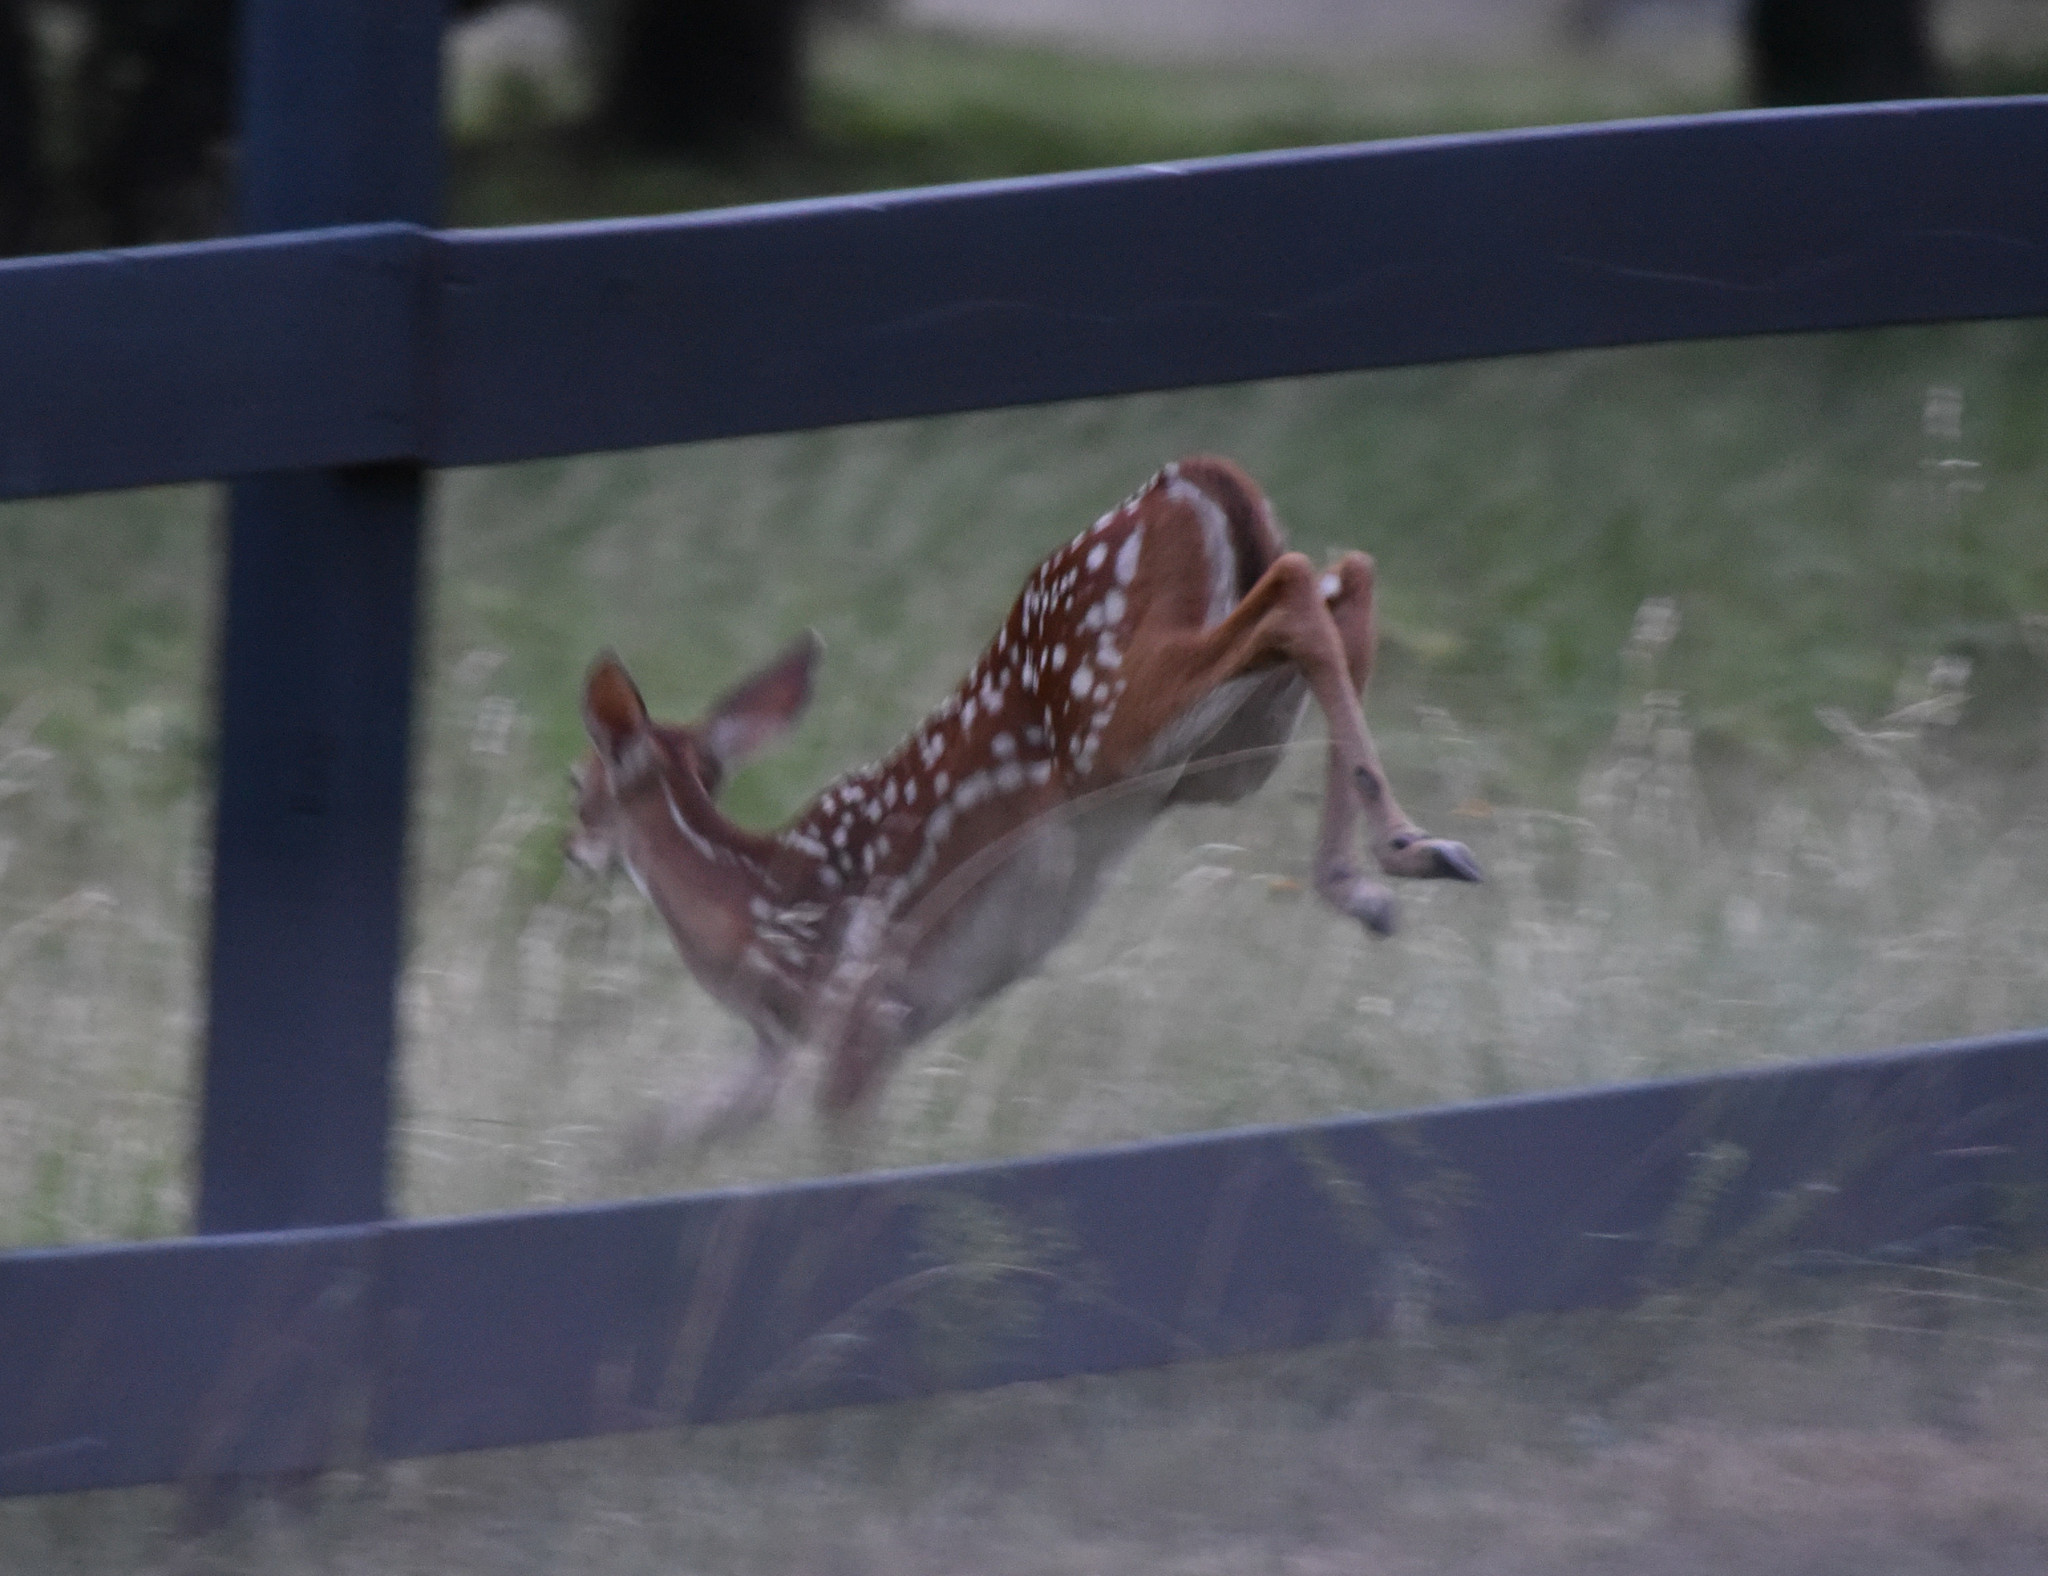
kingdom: Animalia
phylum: Chordata
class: Mammalia
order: Artiodactyla
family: Cervidae
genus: Odocoileus
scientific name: Odocoileus virginianus
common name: White-tailed deer
